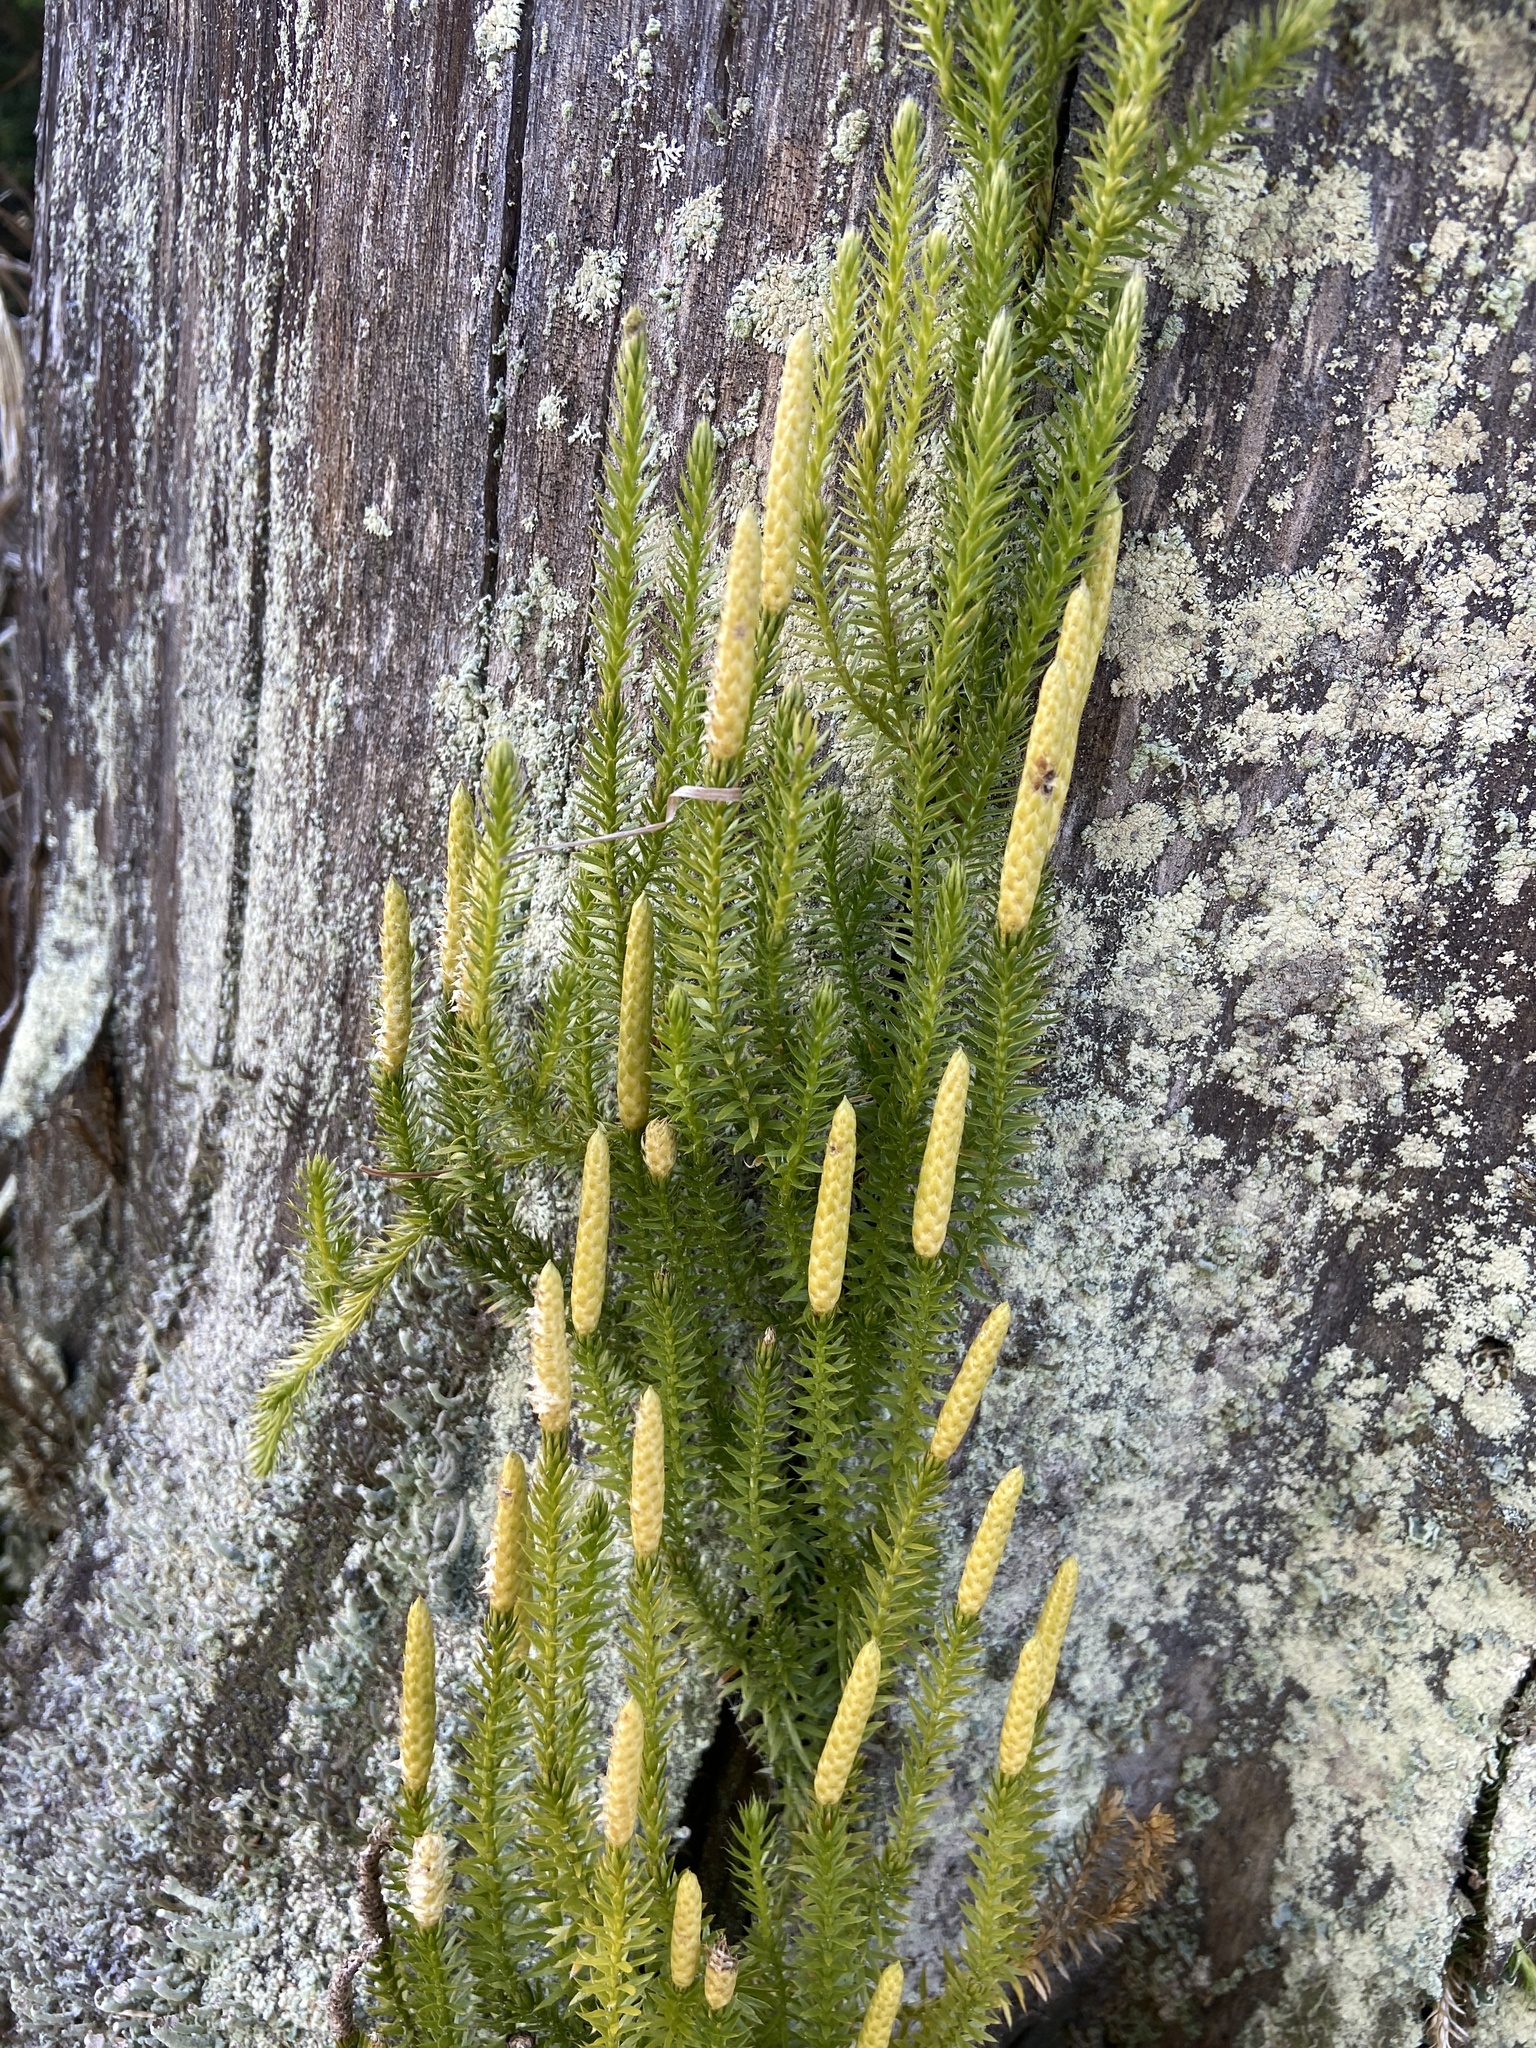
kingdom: Plantae
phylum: Tracheophyta
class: Lycopodiopsida
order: Lycopodiales
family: Lycopodiaceae
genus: Spinulum
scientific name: Spinulum annotinum
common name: Interrupted club-moss
